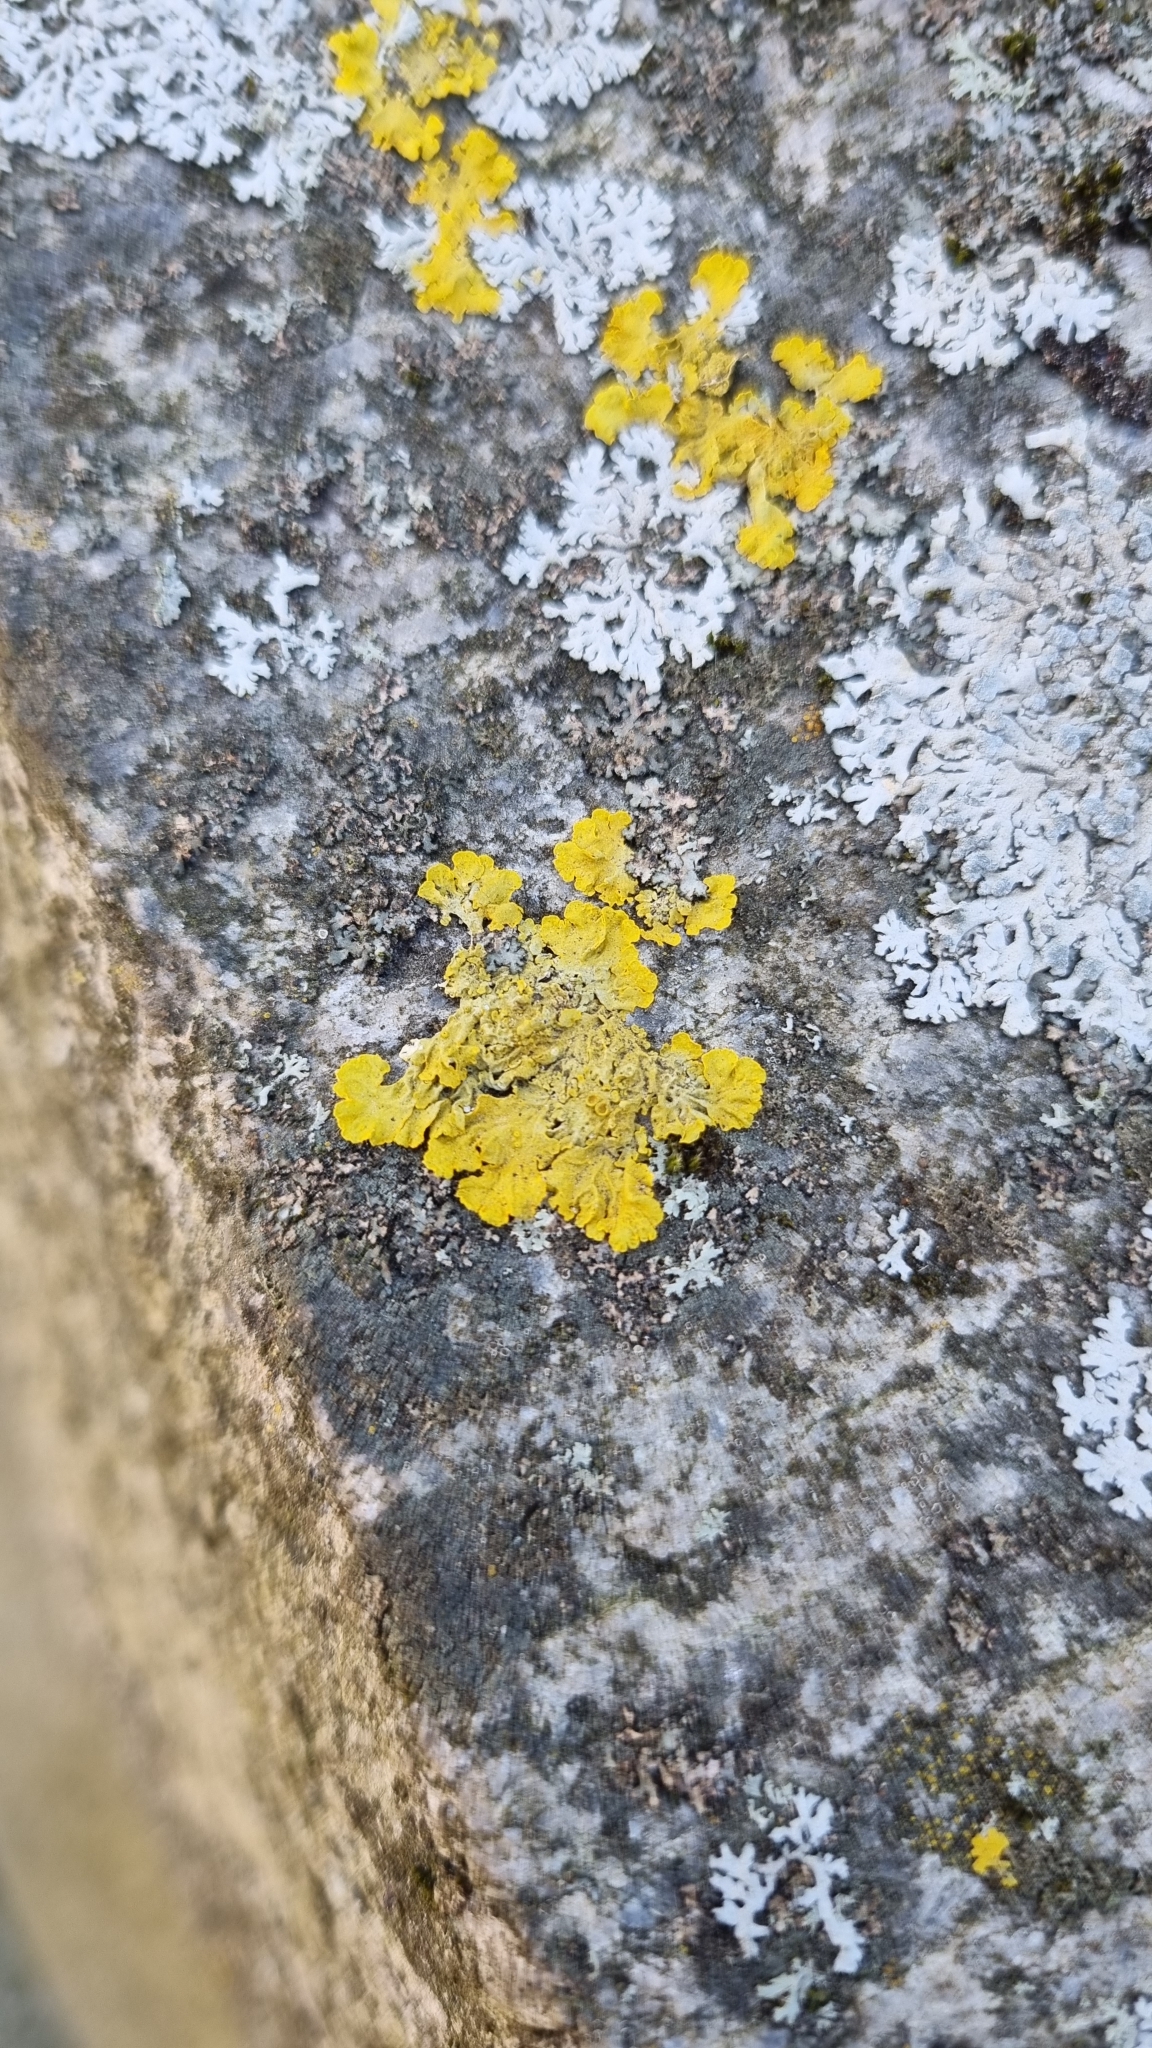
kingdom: Fungi
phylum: Ascomycota
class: Lecanoromycetes
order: Teloschistales
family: Teloschistaceae
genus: Xanthoria
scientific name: Xanthoria parietina
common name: Common orange lichen
